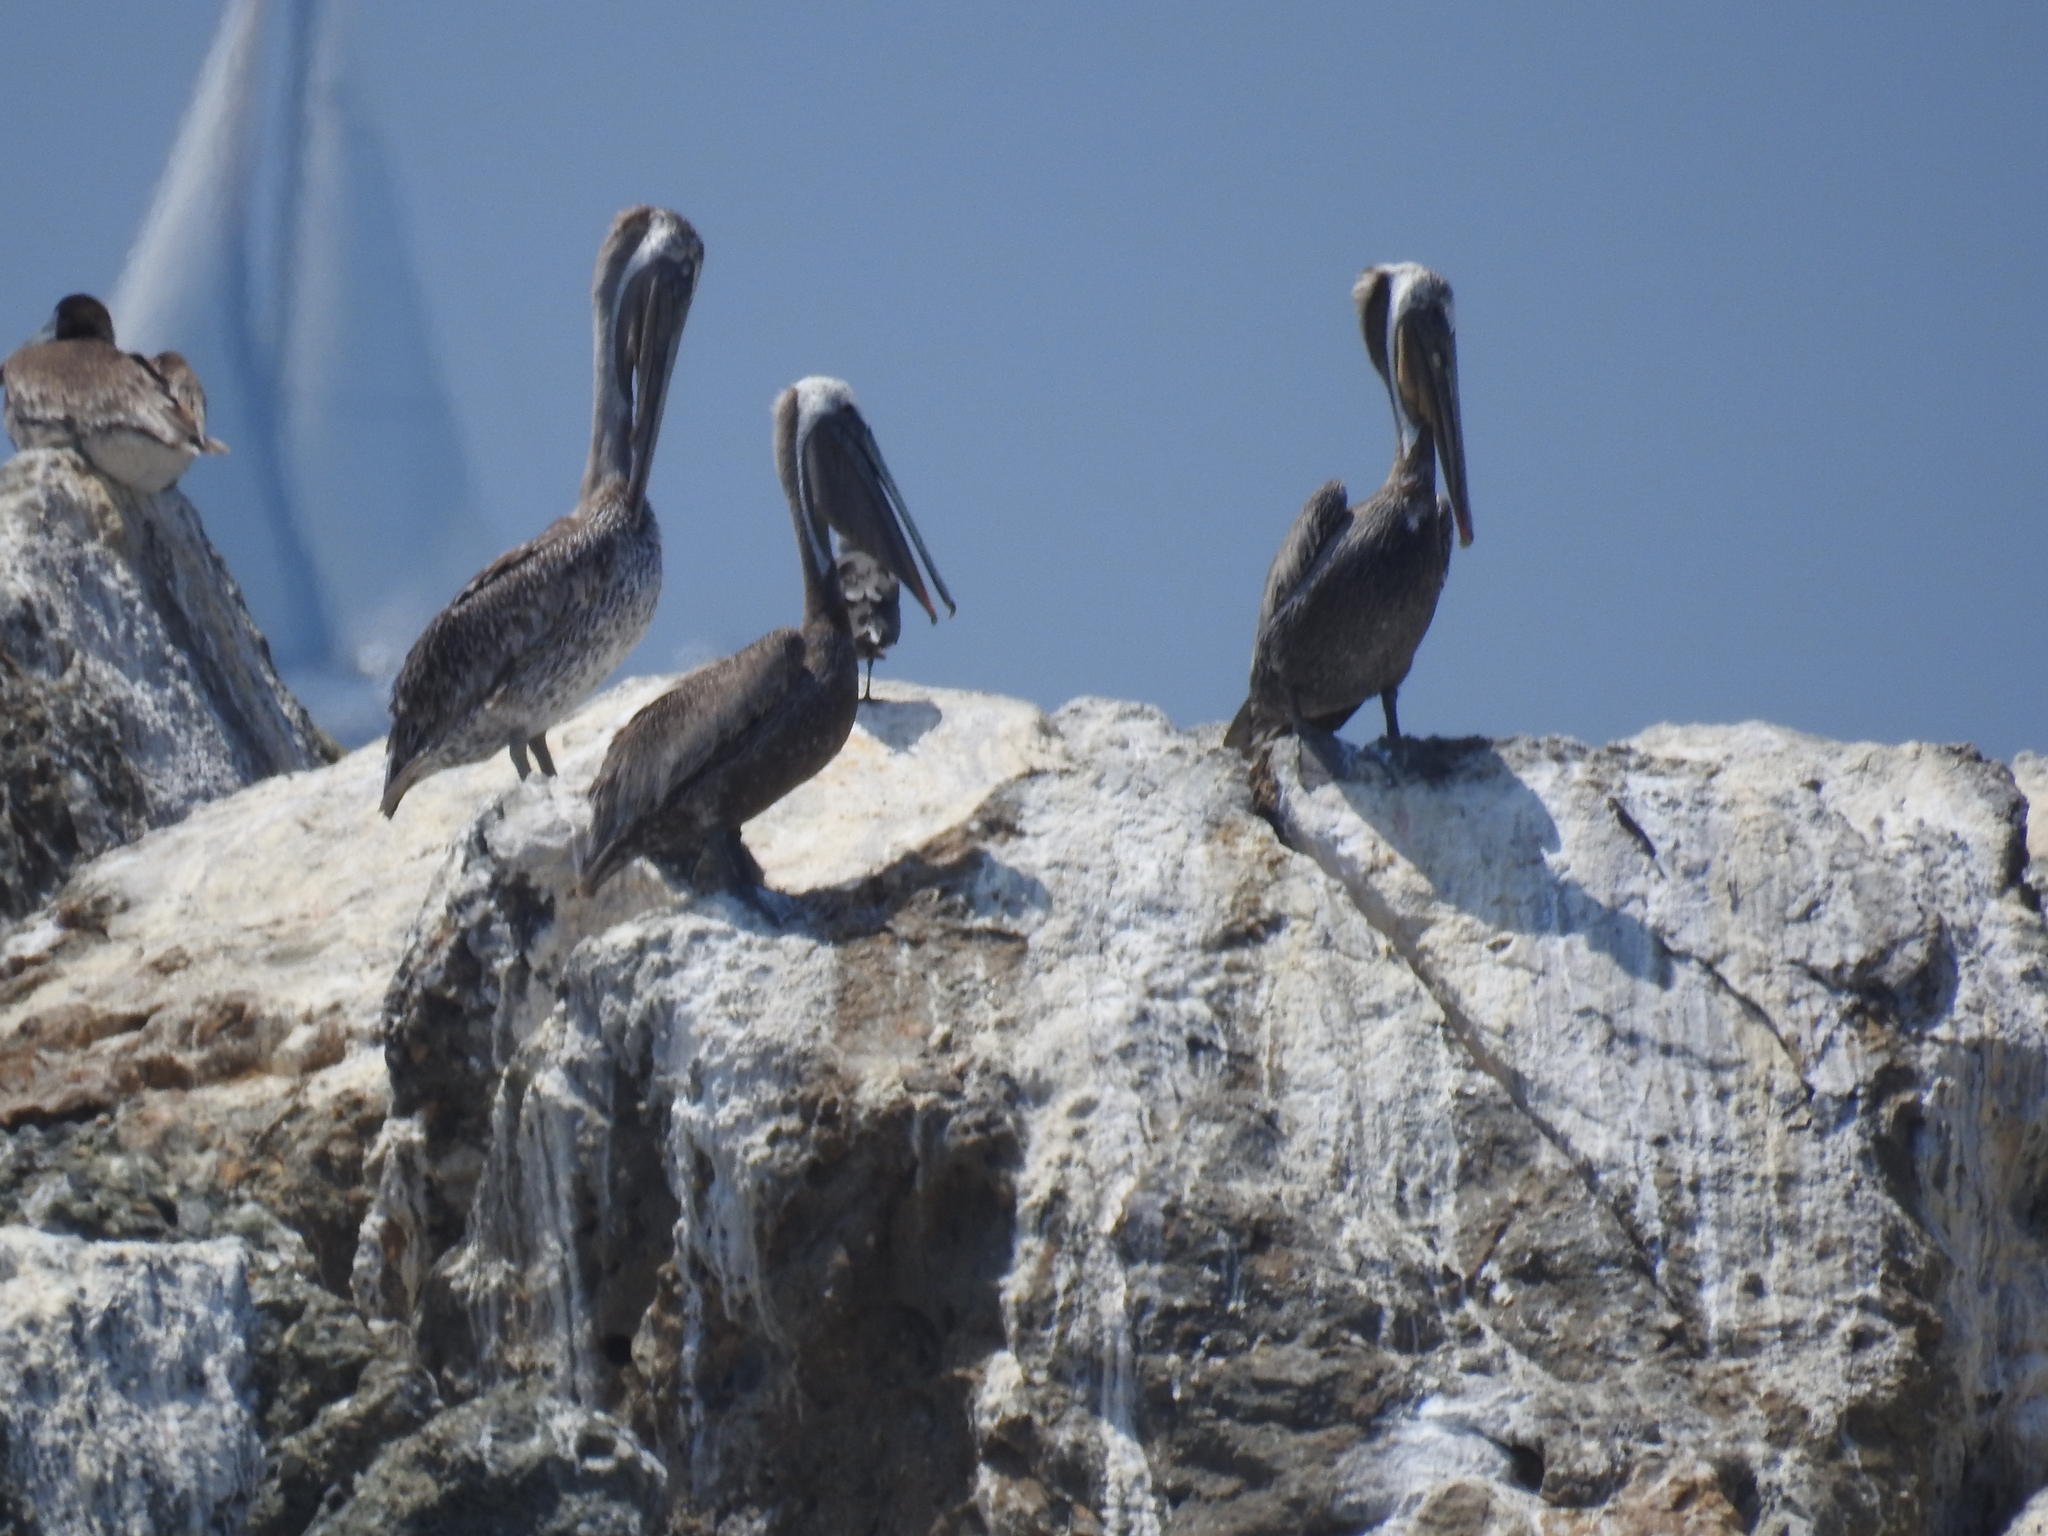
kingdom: Animalia
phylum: Chordata
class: Aves
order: Pelecaniformes
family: Pelecanidae
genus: Pelecanus
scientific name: Pelecanus occidentalis
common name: Brown pelican
